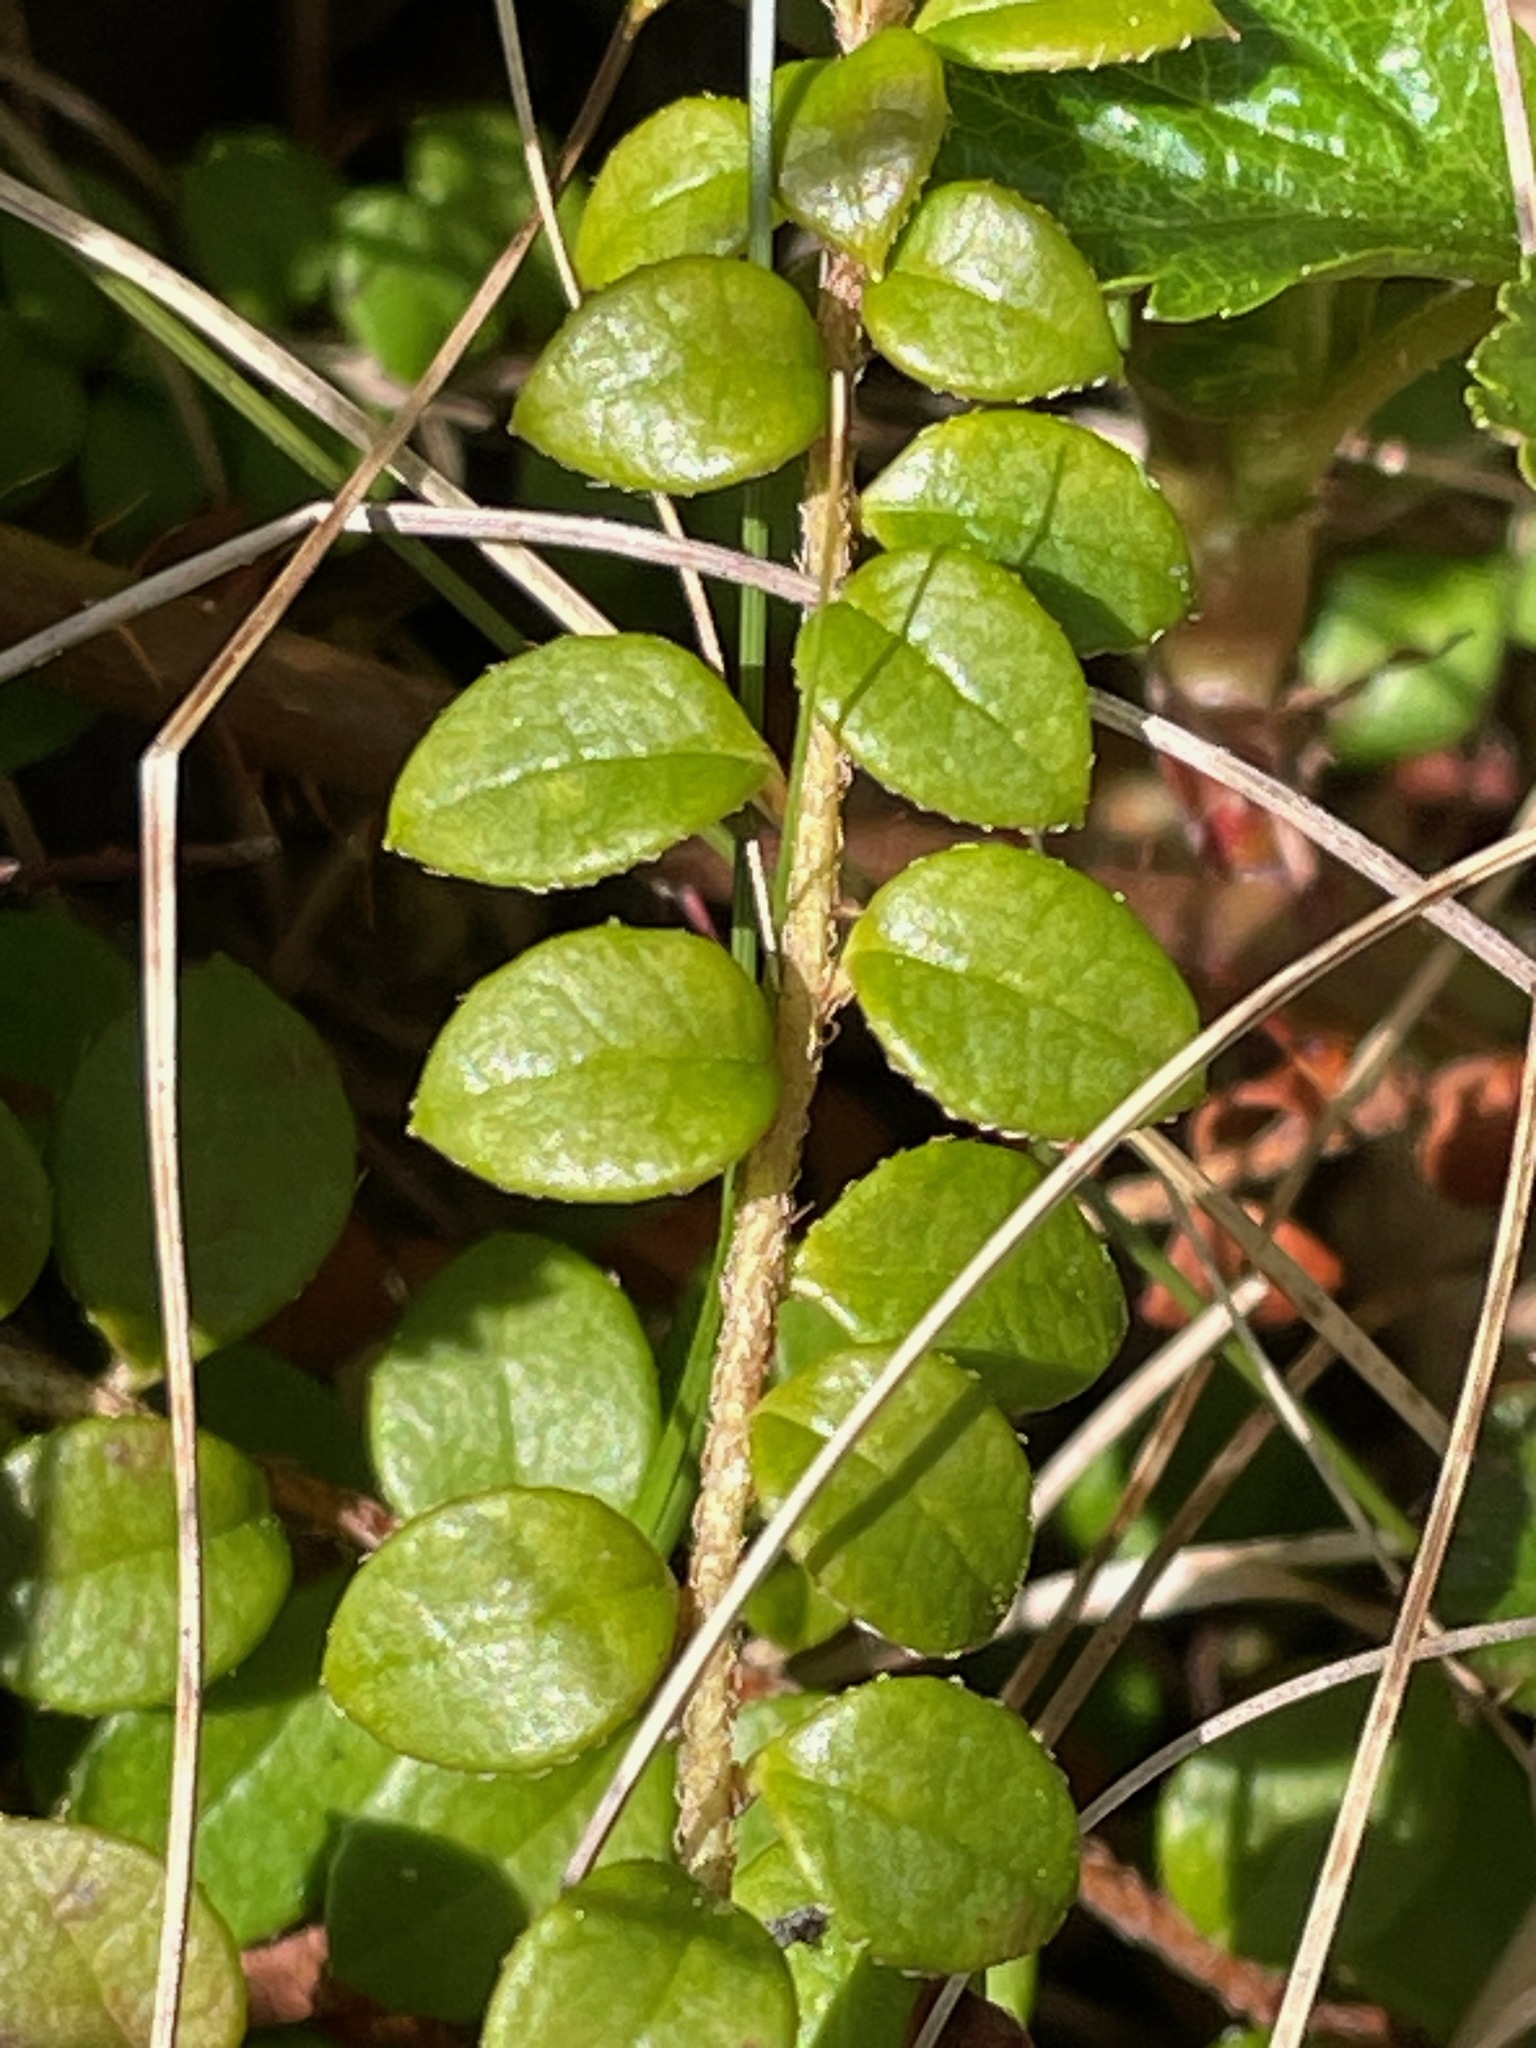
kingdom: Plantae
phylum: Tracheophyta
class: Magnoliopsida
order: Ericales
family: Ericaceae
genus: Gaultheria
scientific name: Gaultheria hispidula
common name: Cancer wintergreen
